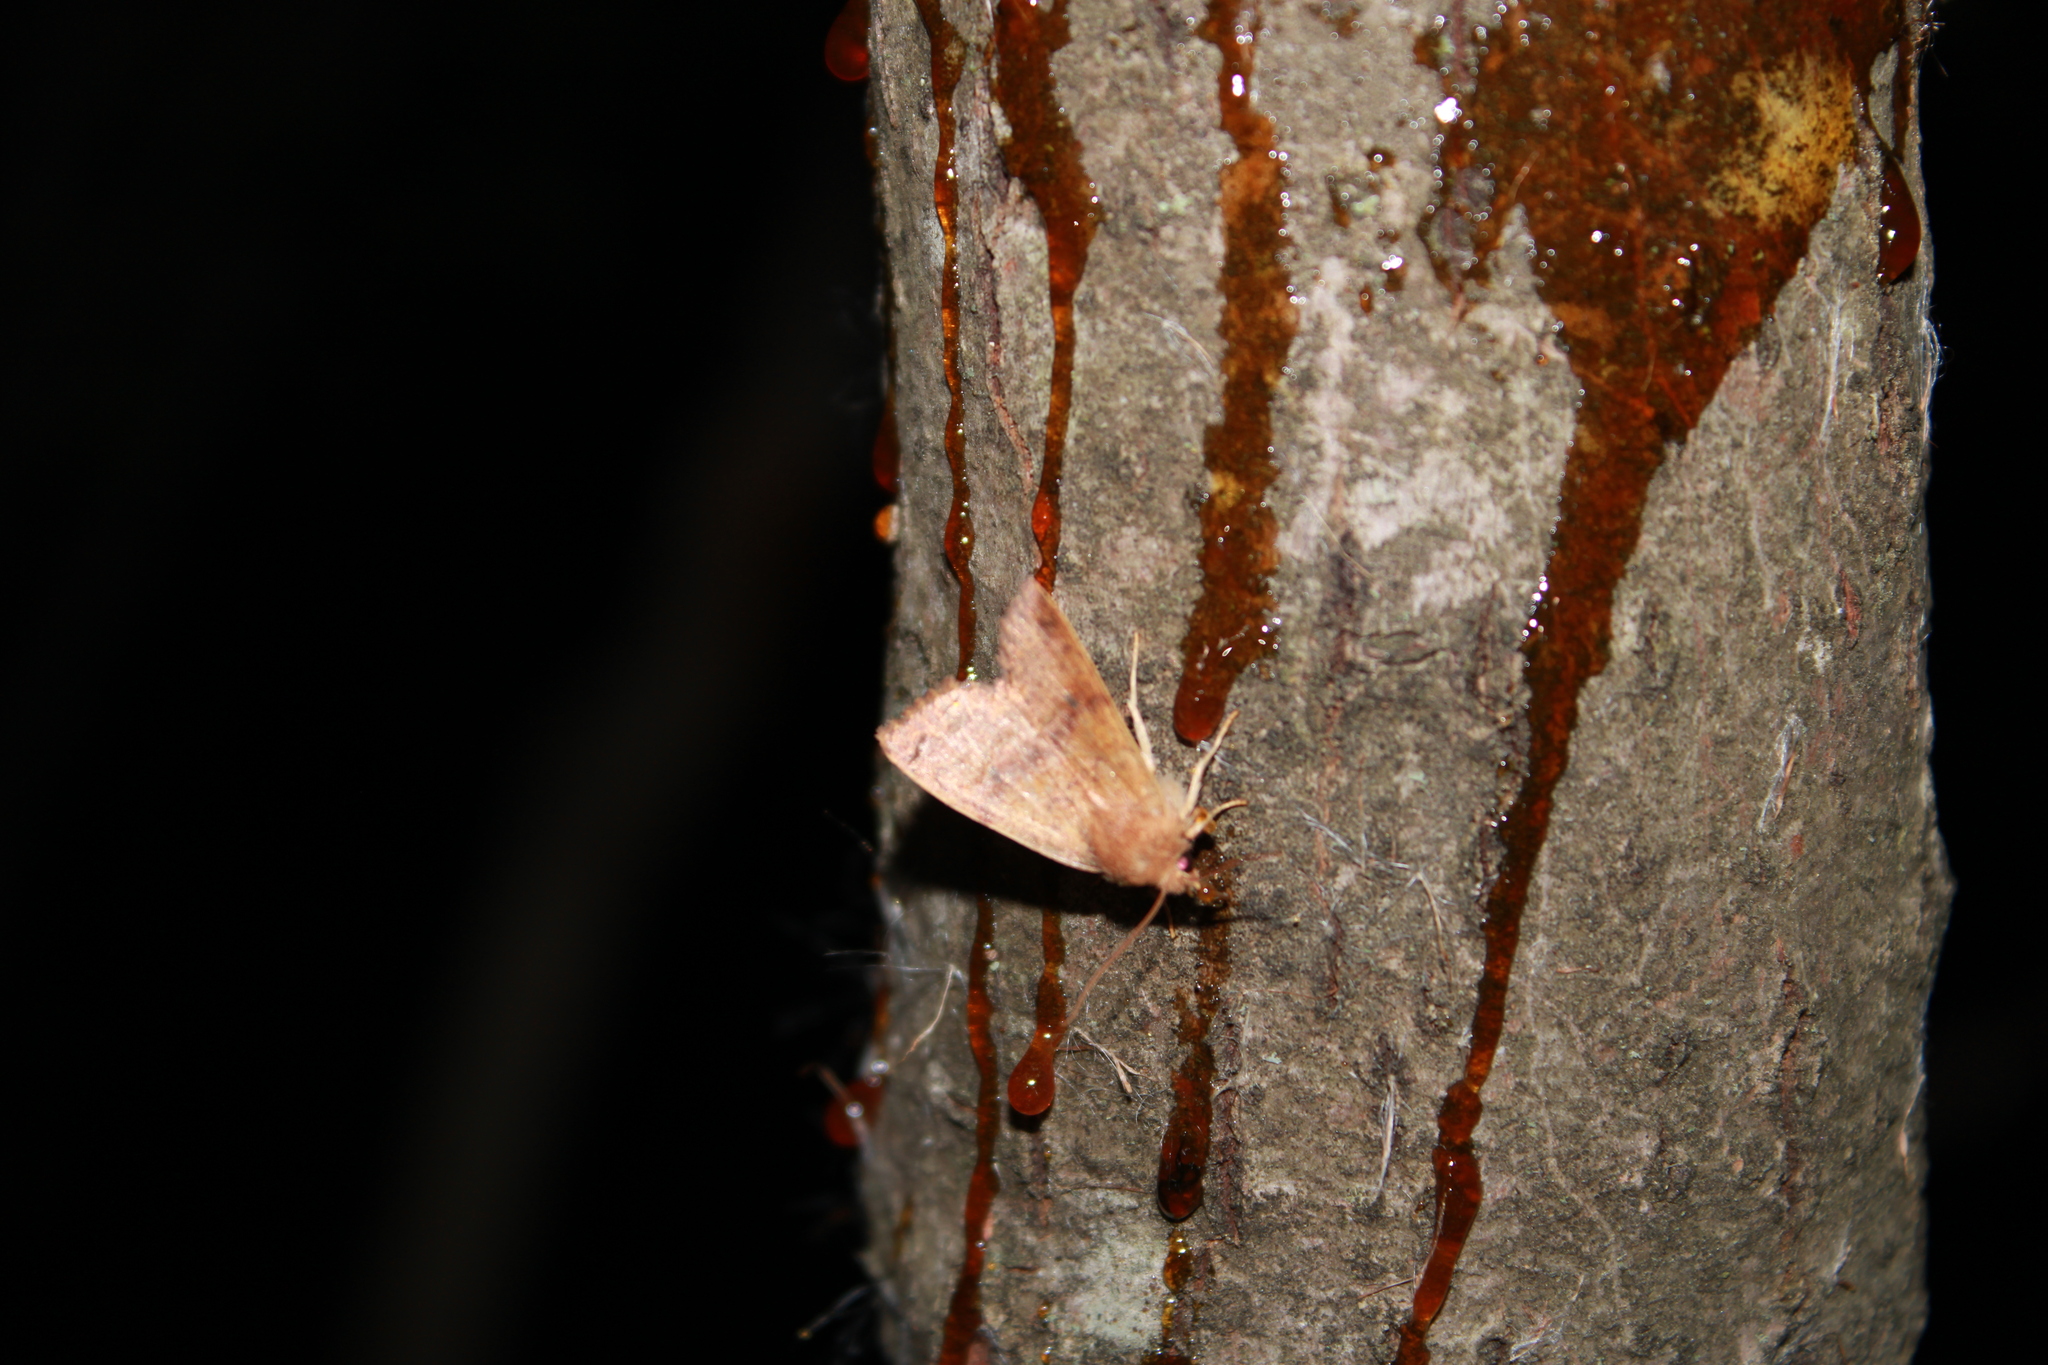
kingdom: Animalia
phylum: Arthropoda
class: Insecta
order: Lepidoptera
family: Noctuidae
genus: Agrochola
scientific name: Agrochola bicolorago
